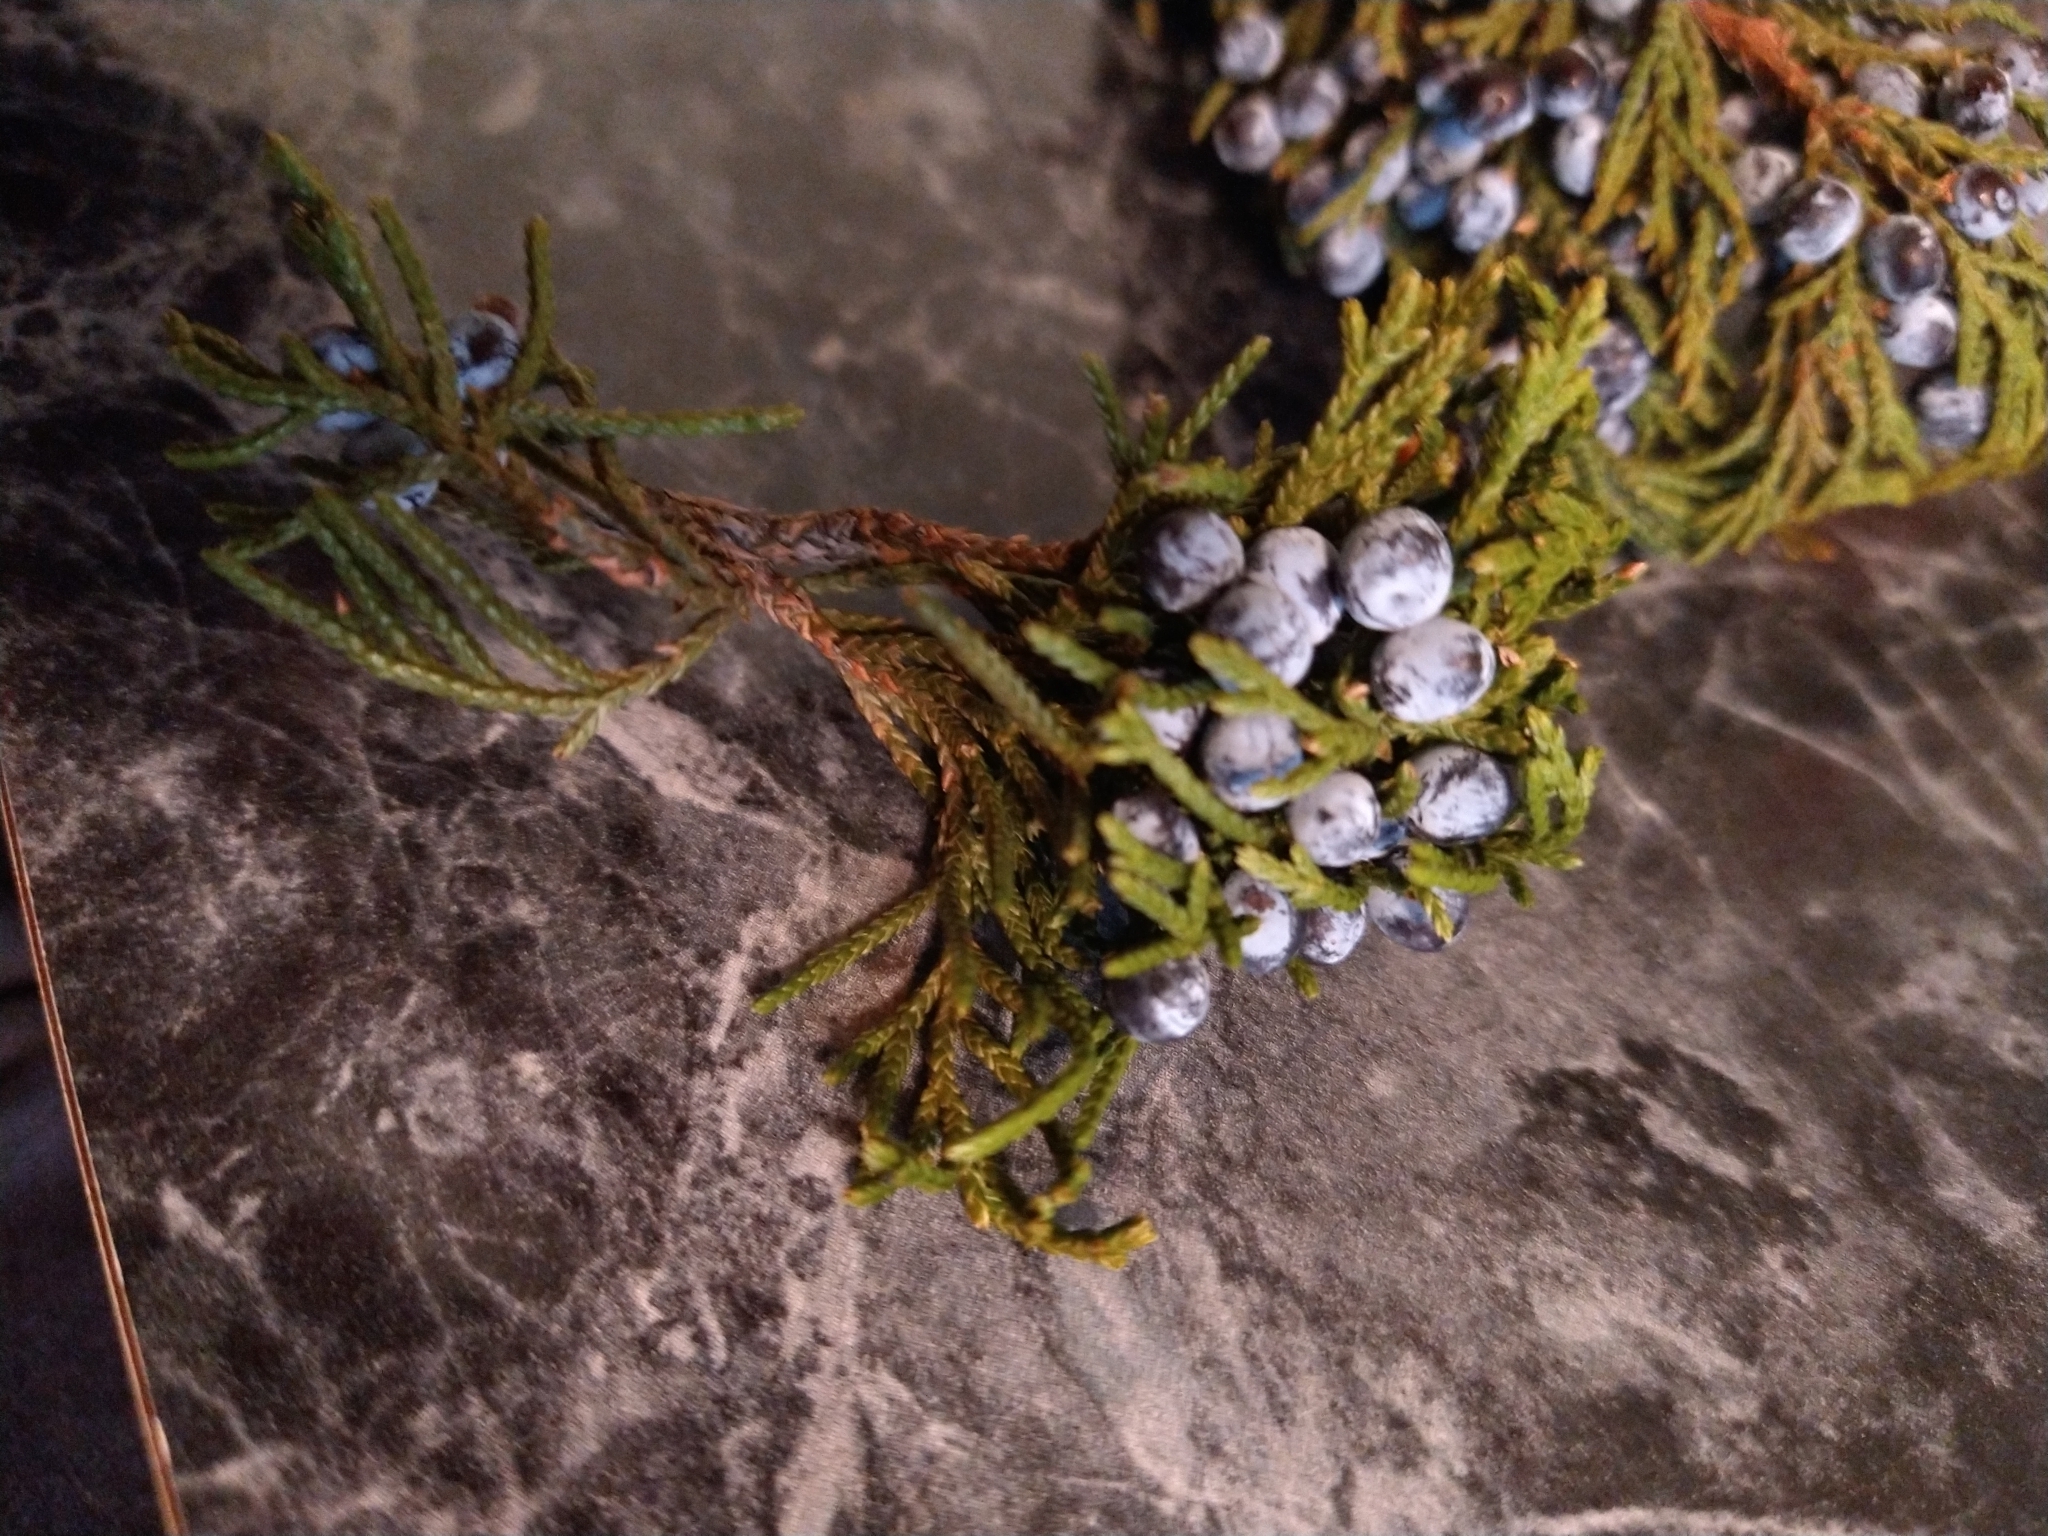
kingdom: Plantae
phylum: Tracheophyta
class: Pinopsida
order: Pinales
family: Cupressaceae
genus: Juniperus
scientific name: Juniperus virginiana
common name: Red juniper
